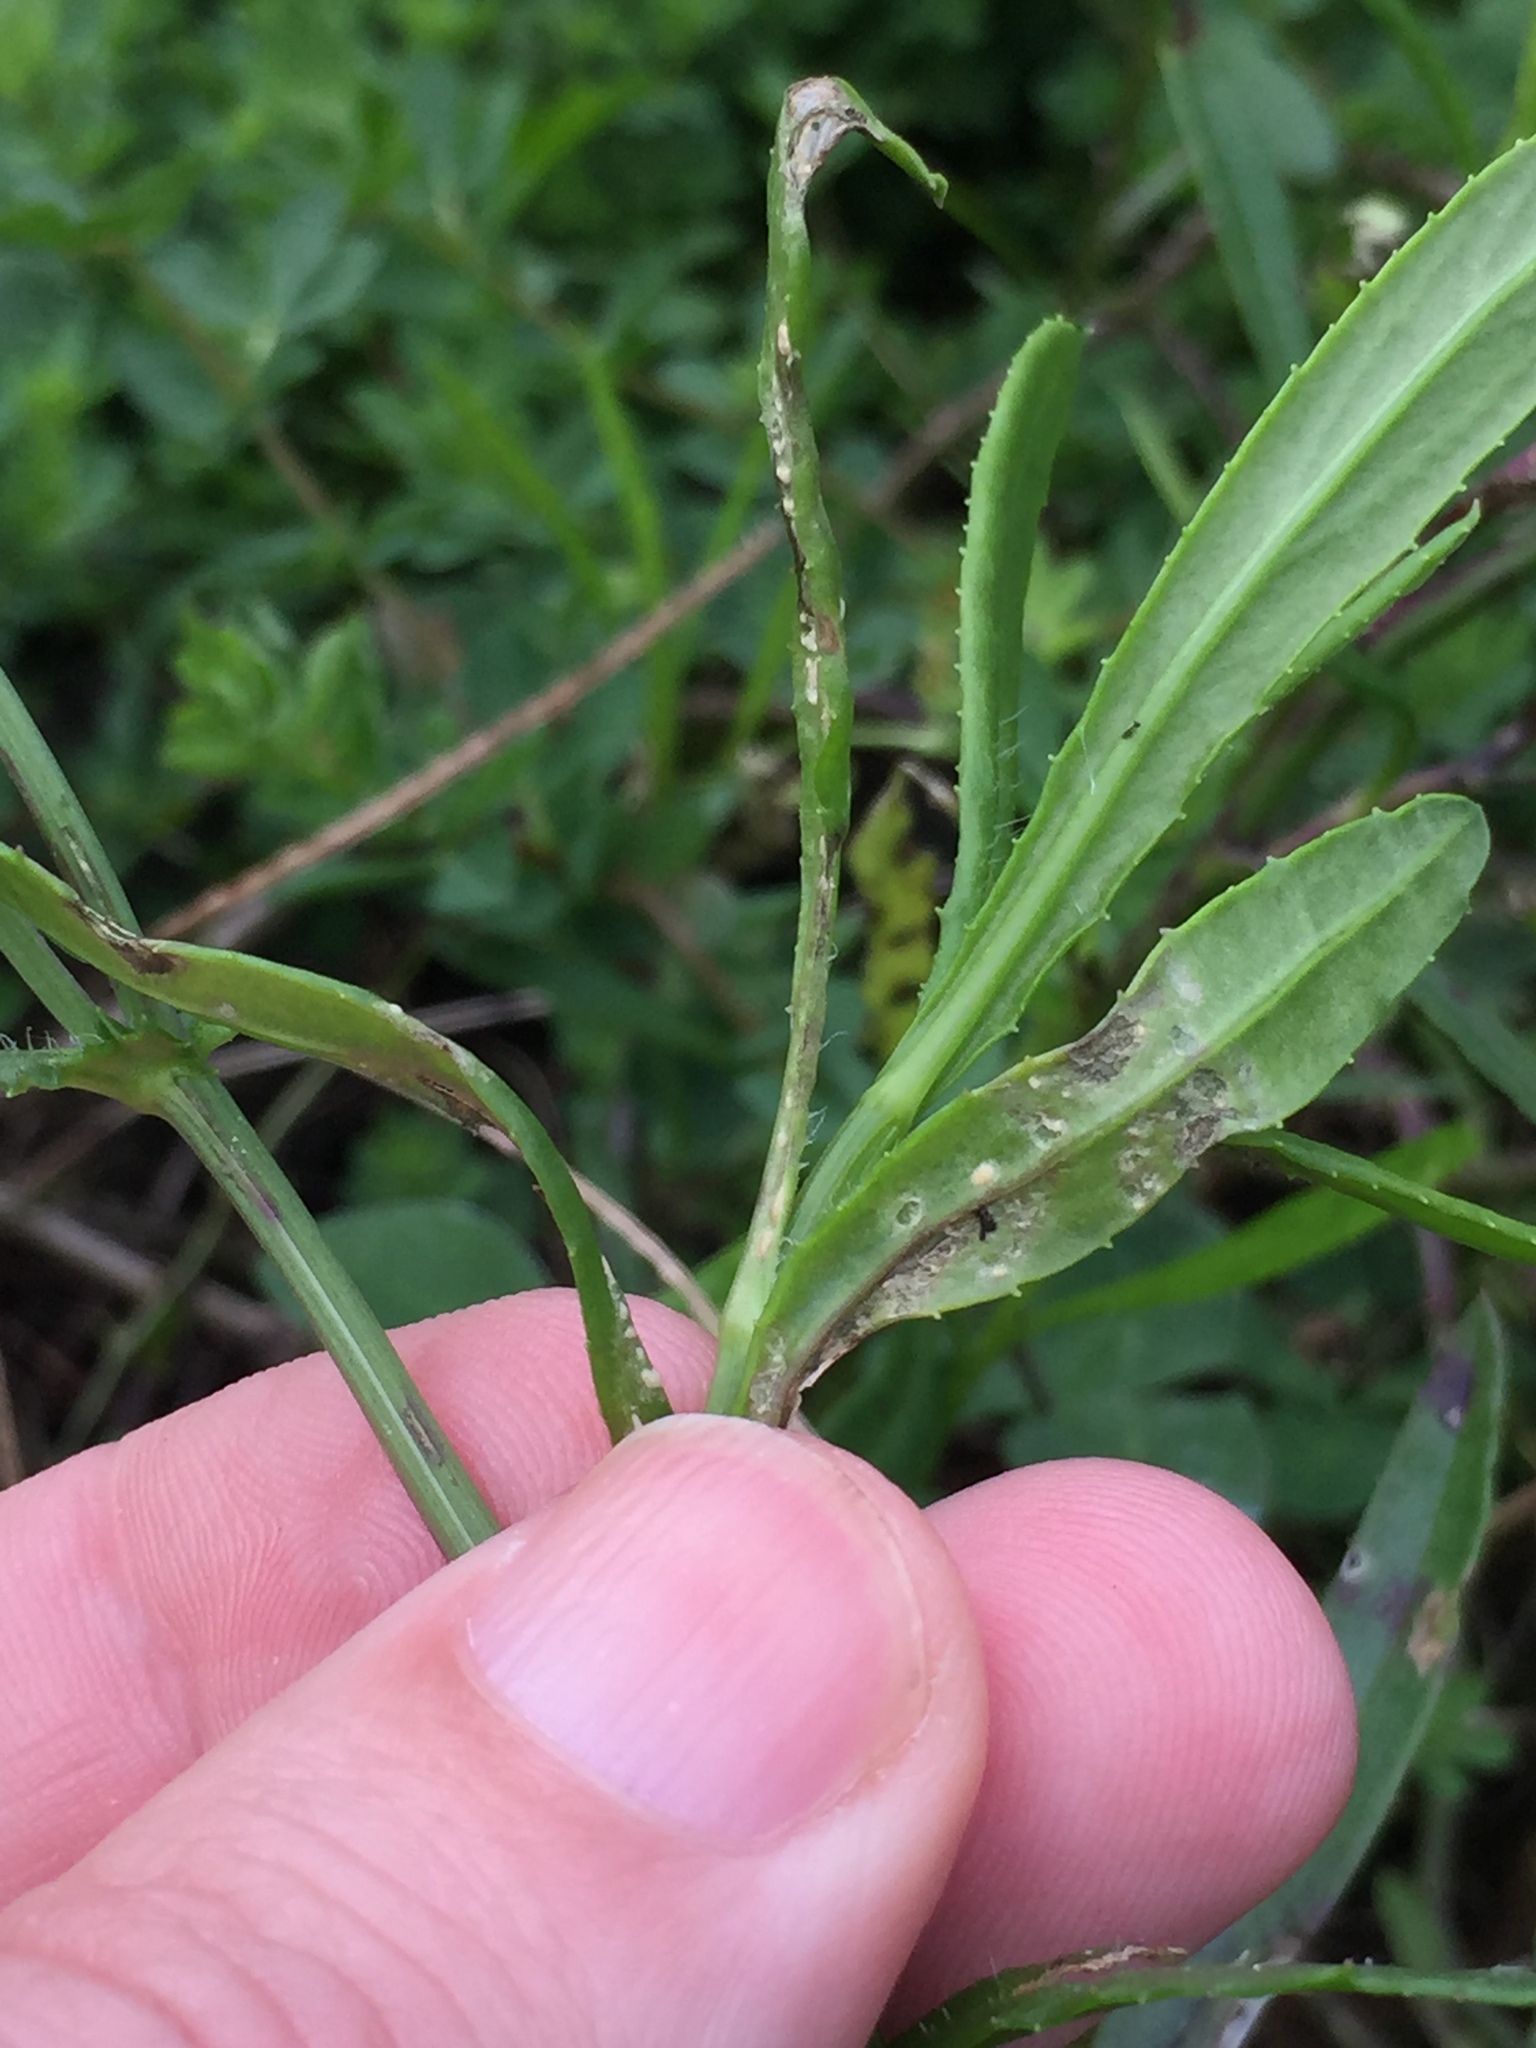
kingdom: Chromista
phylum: Oomycota
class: Peronosporea
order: Albuginales
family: Albuginaceae
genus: Pustula
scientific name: Pustula
